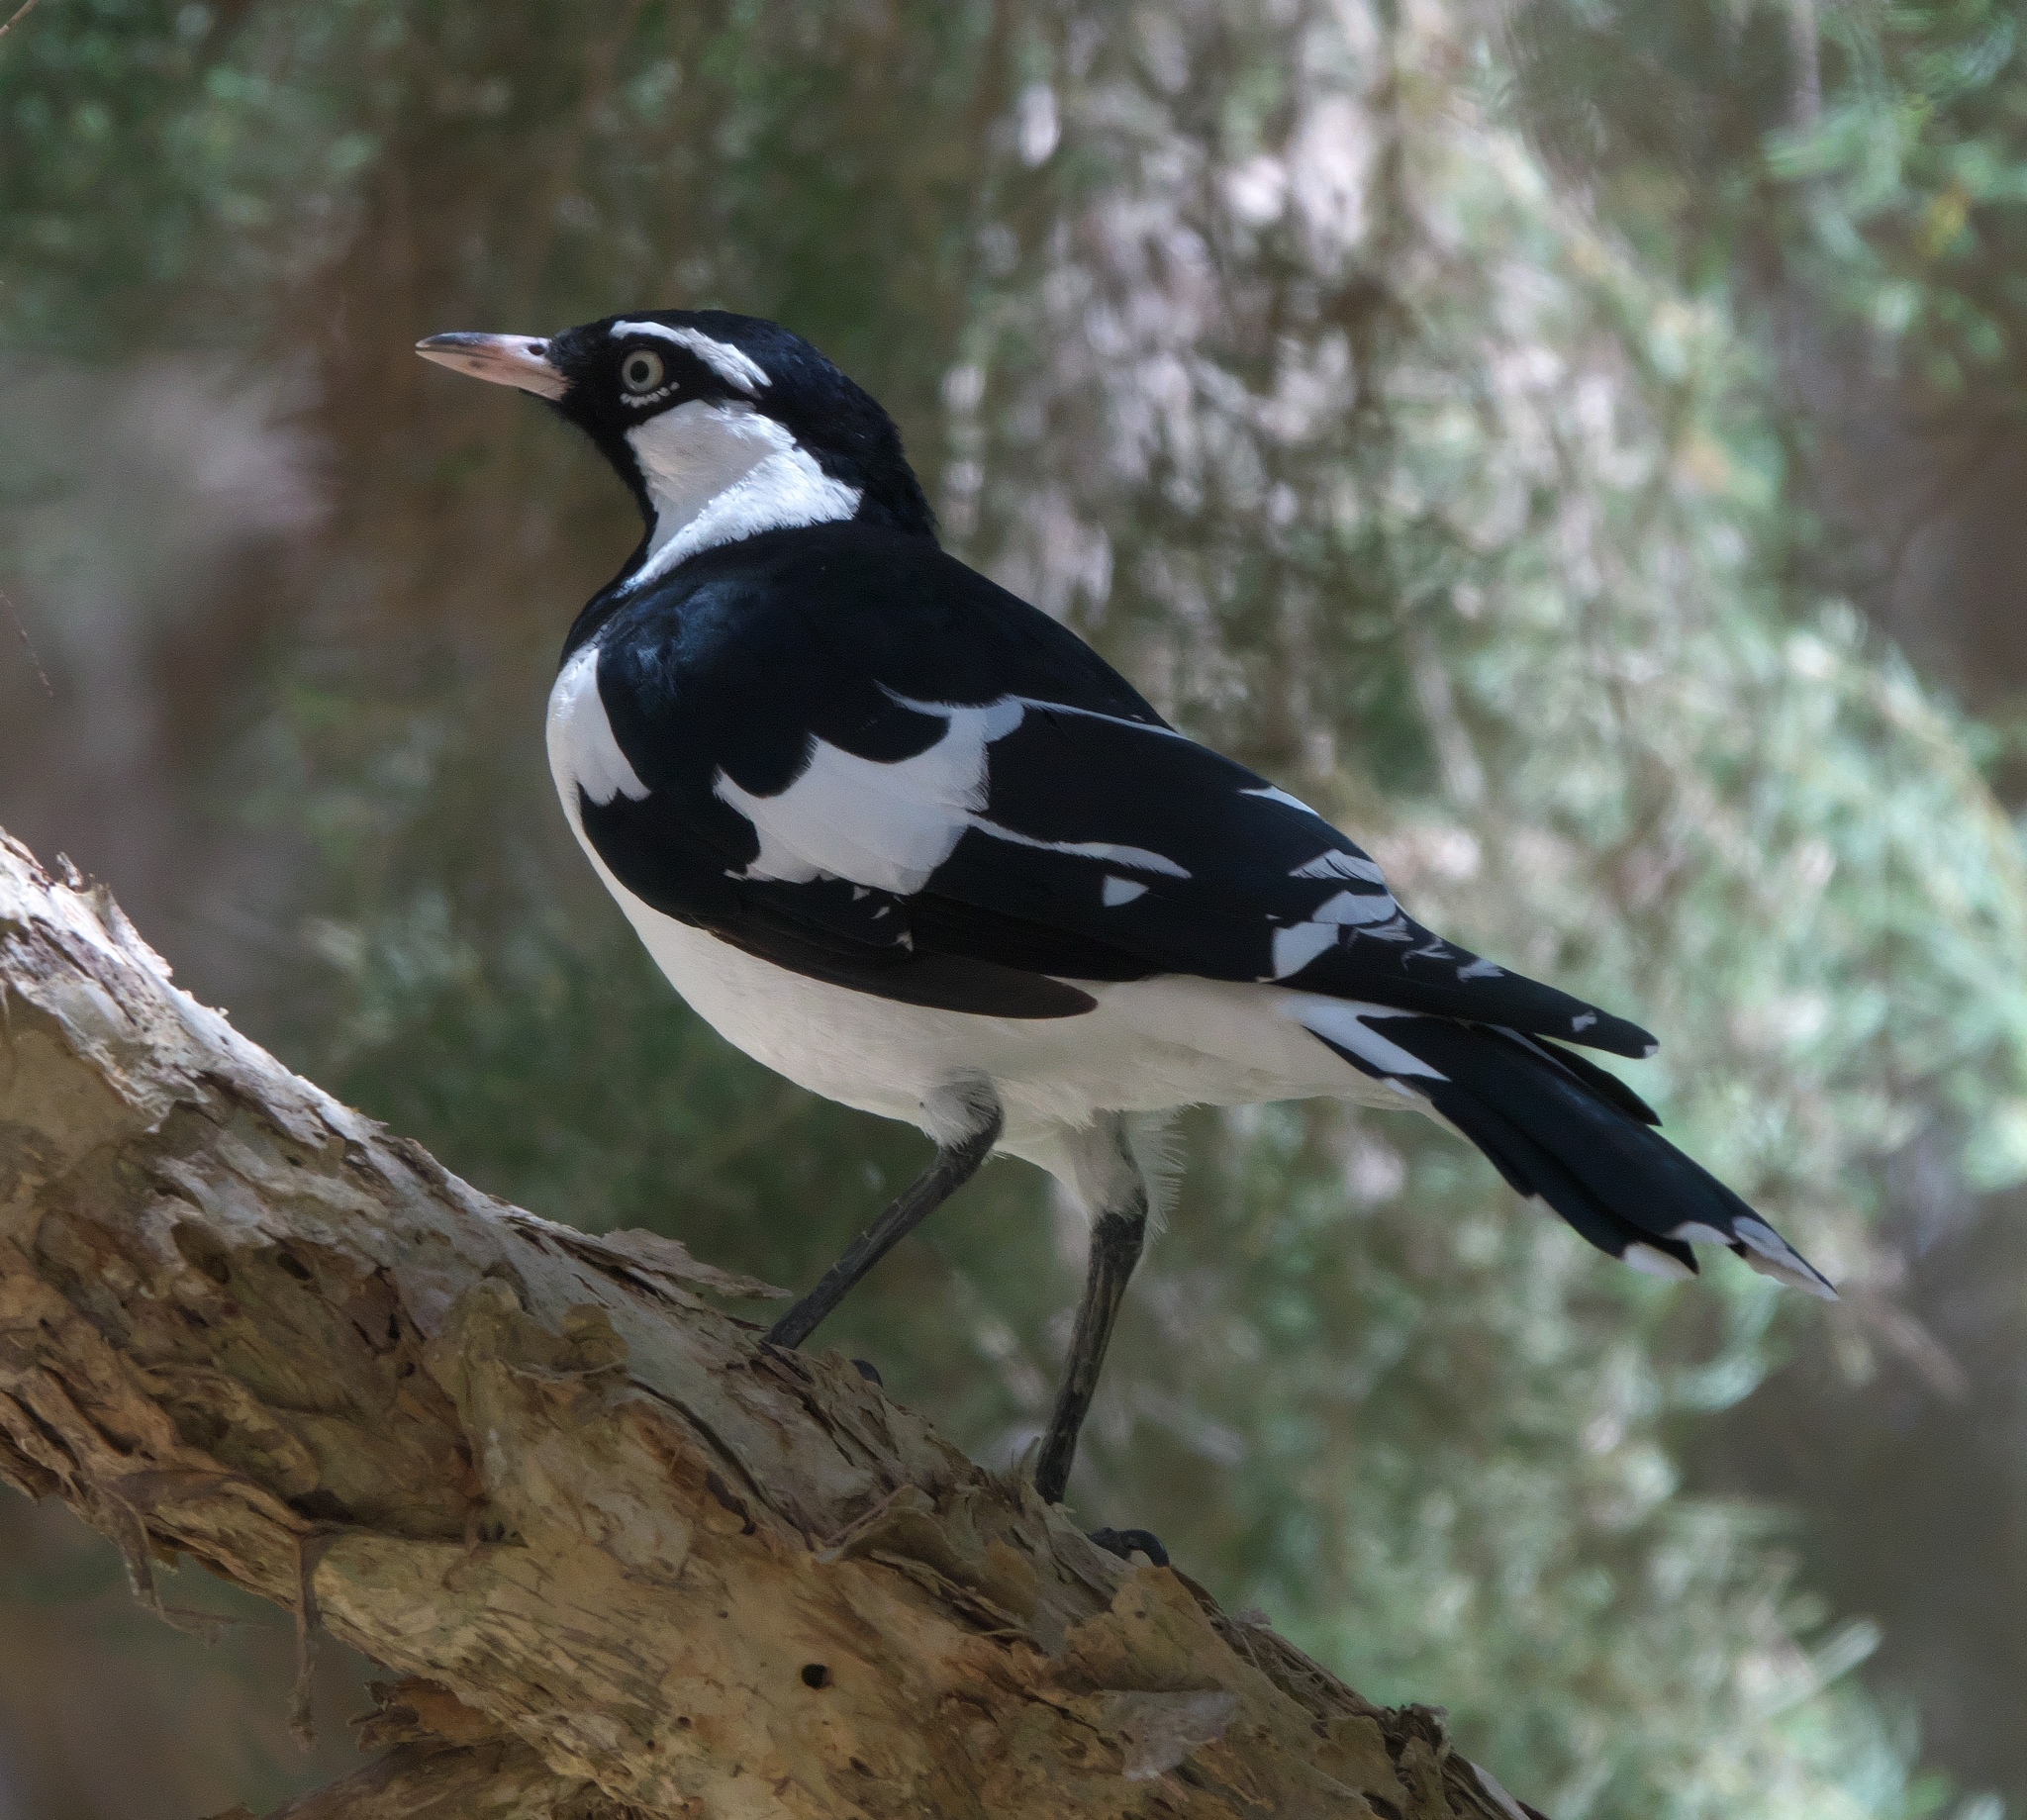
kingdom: Animalia
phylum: Chordata
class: Aves
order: Passeriformes
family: Monarchidae
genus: Grallina
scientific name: Grallina cyanoleuca
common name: Magpie-lark
